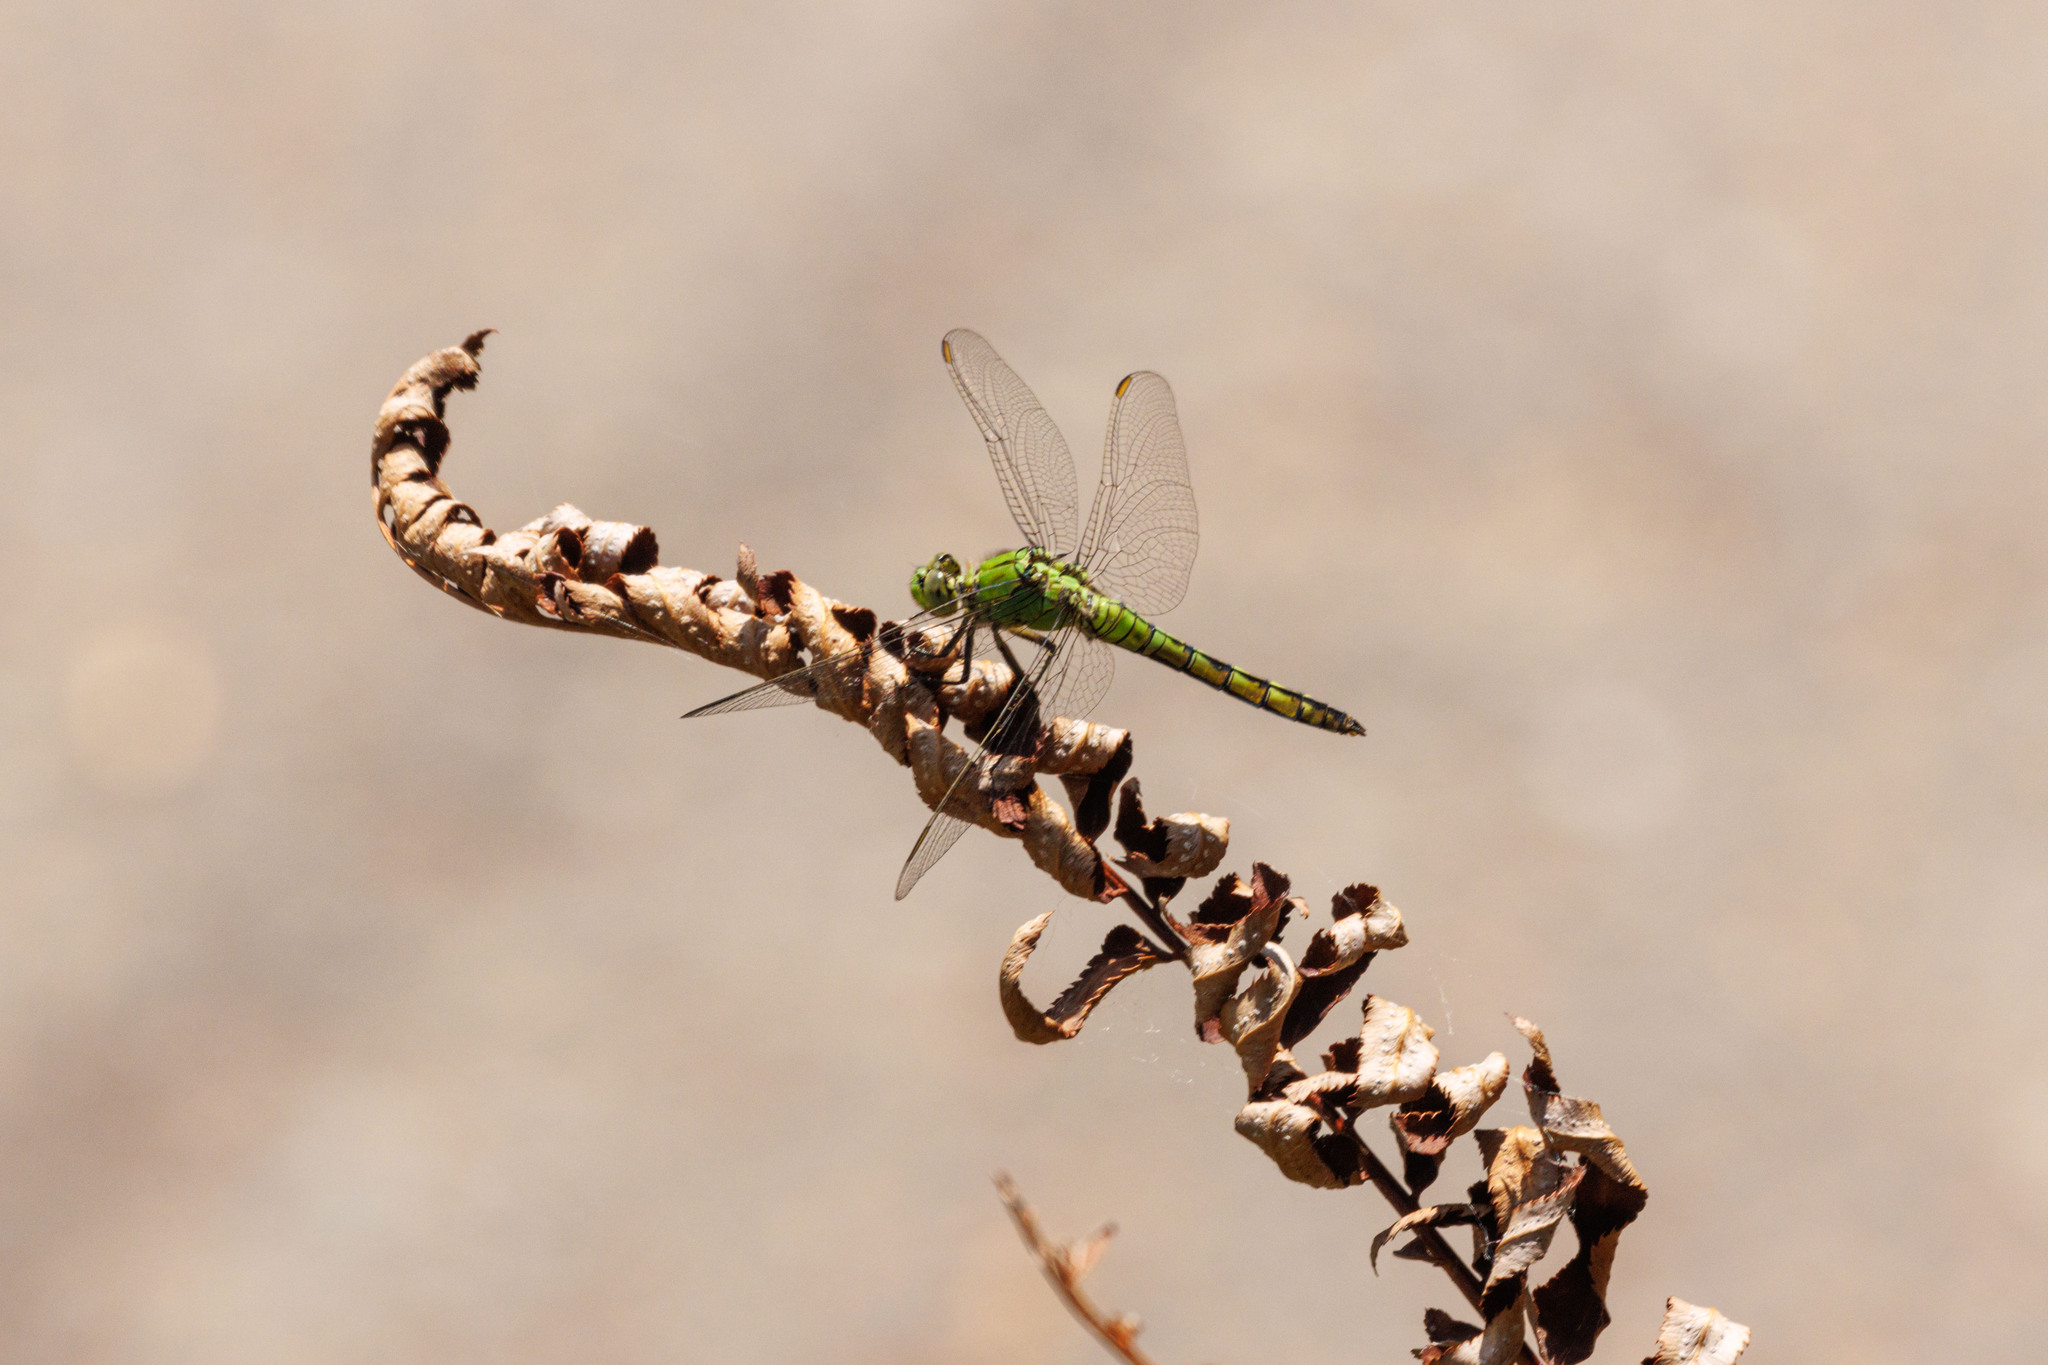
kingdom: Animalia
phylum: Arthropoda
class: Insecta
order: Odonata
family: Libellulidae
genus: Erythemis
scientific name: Erythemis collocata
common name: Western pondhawk
